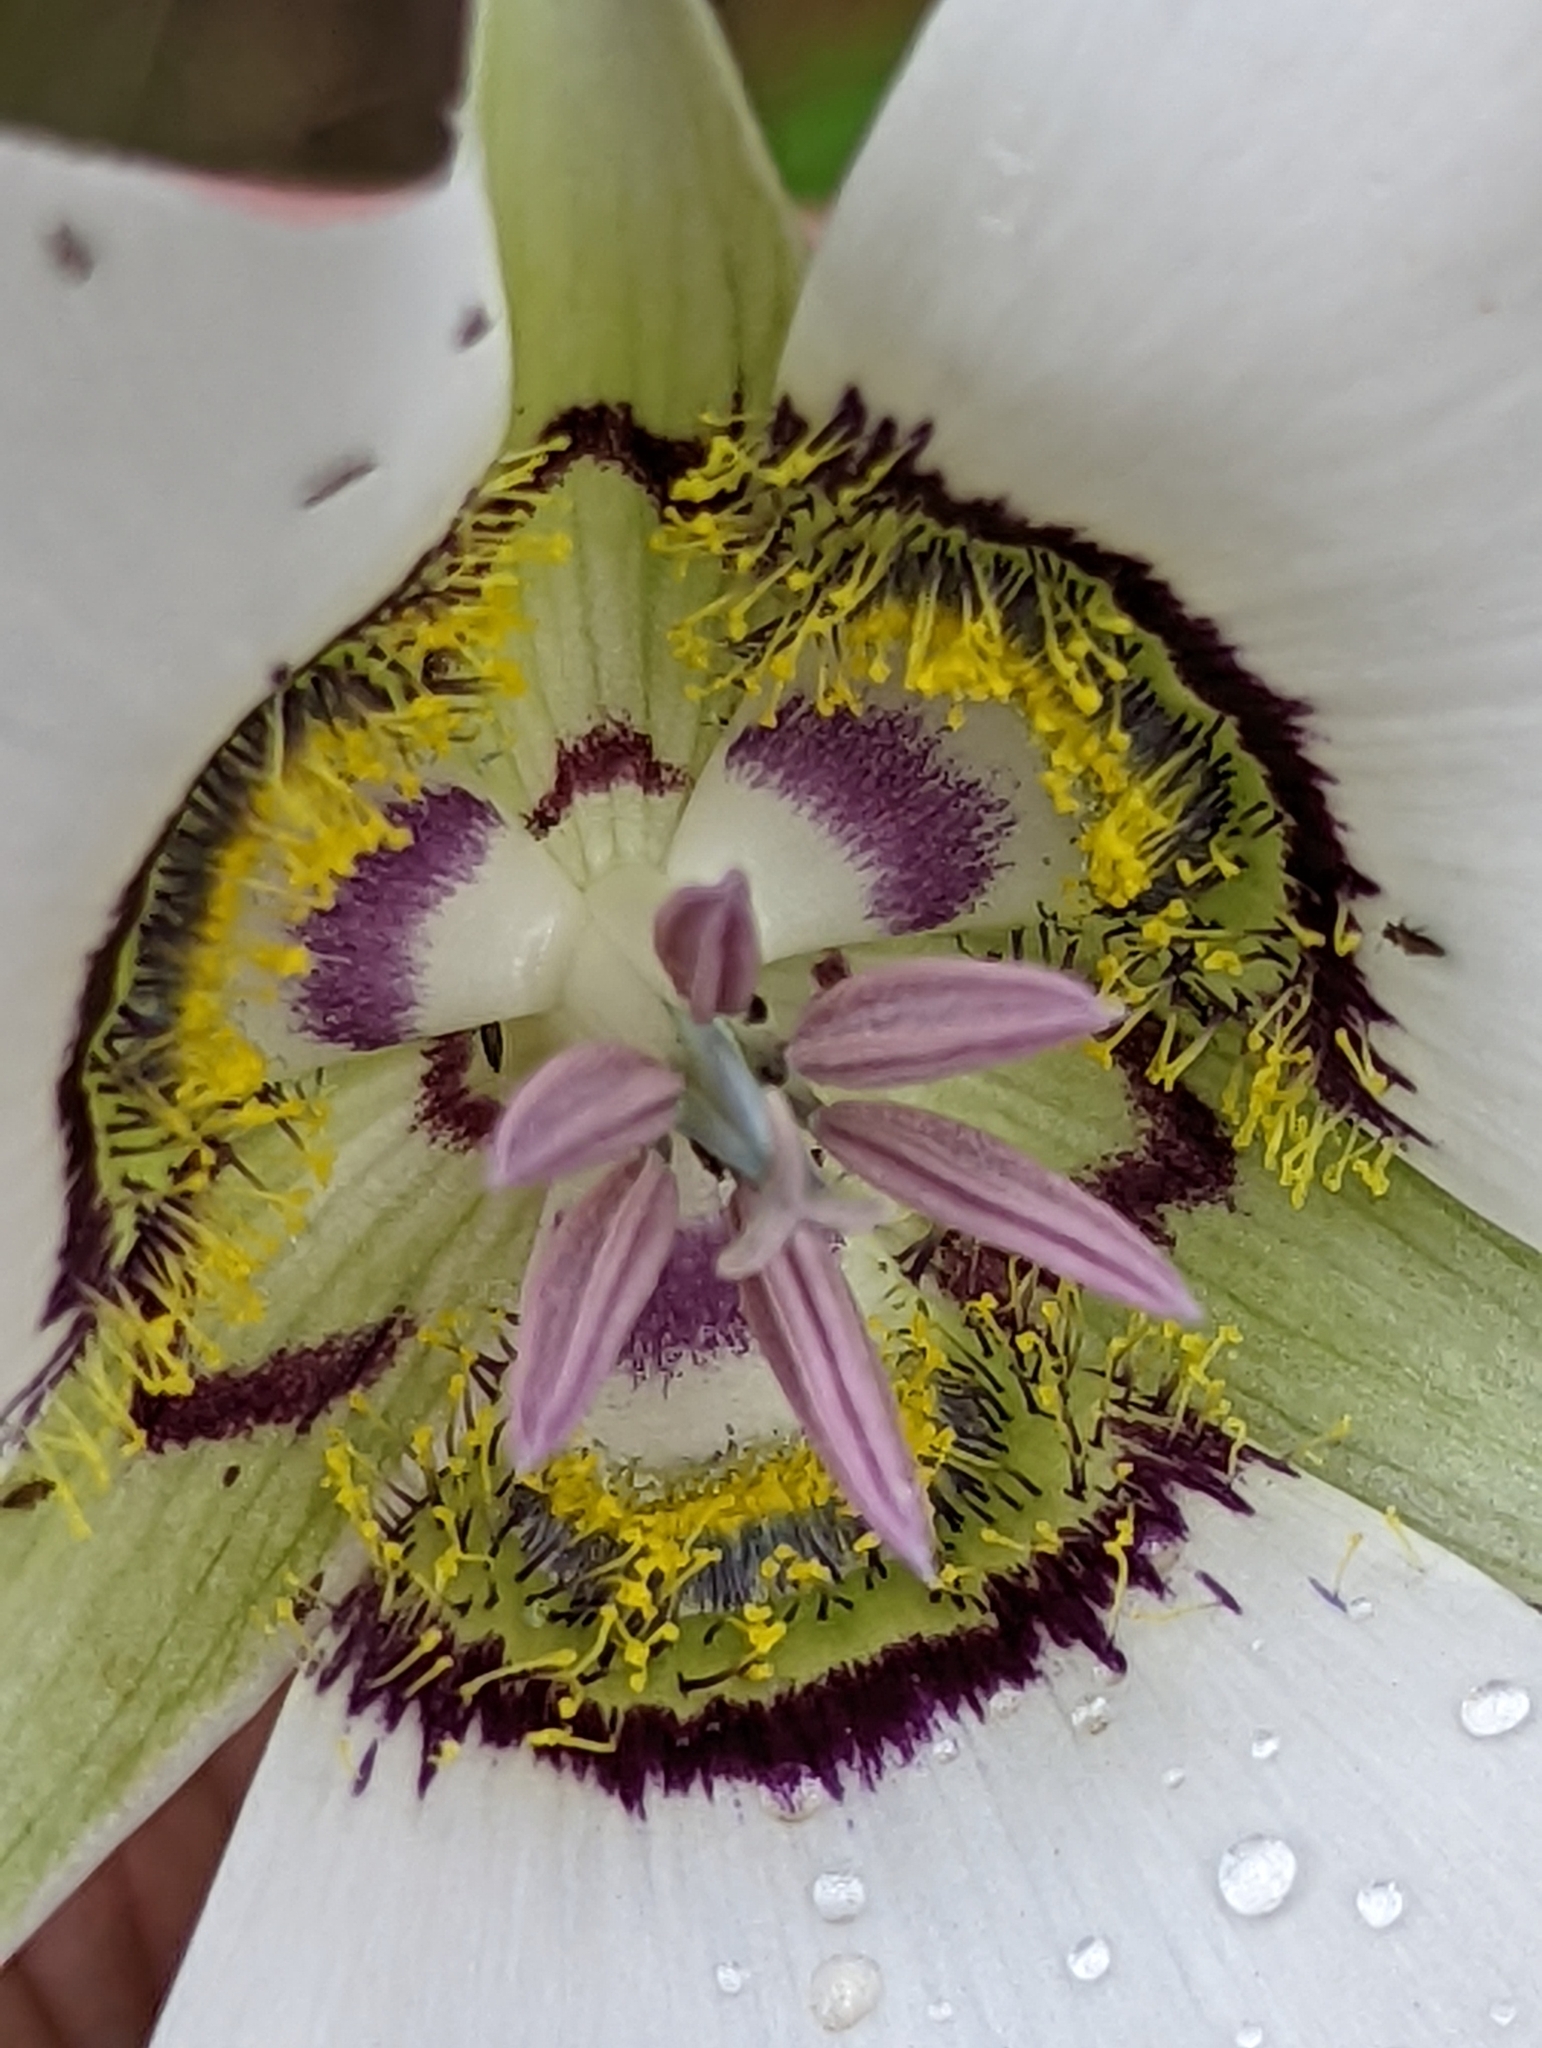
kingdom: Plantae
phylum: Tracheophyta
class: Liliopsida
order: Liliales
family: Liliaceae
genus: Calochortus
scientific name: Calochortus gunnisonii
